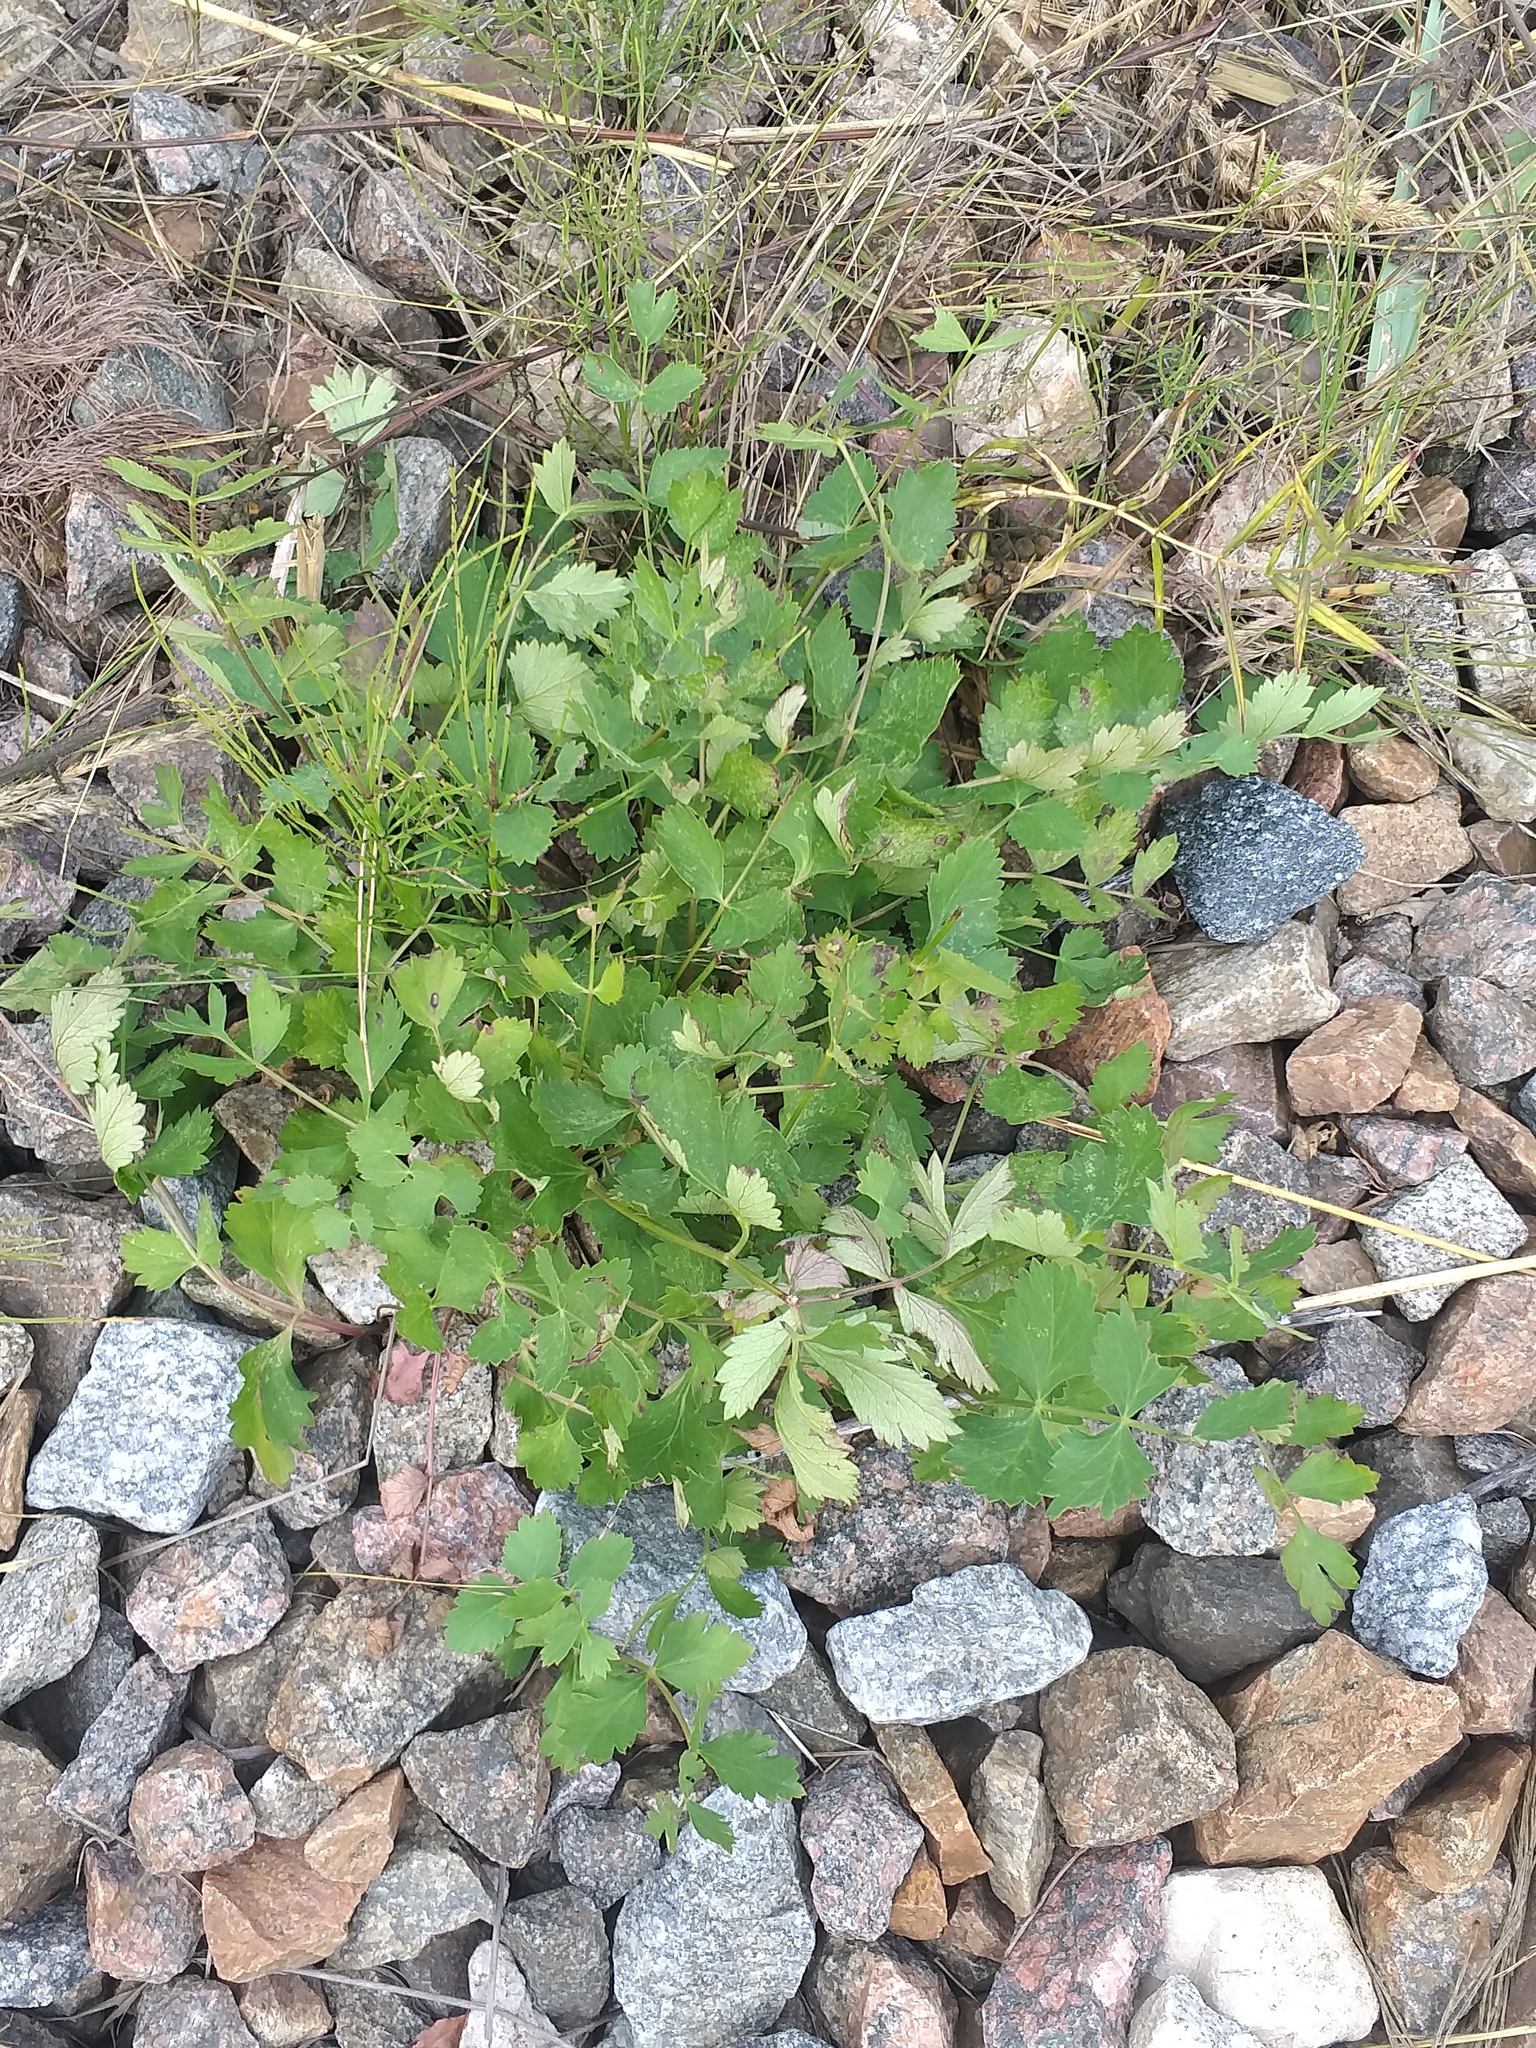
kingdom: Plantae
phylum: Tracheophyta
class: Magnoliopsida
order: Apiales
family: Apiaceae
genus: Pimpinella
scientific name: Pimpinella saxifraga
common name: Burnet-saxifrage
